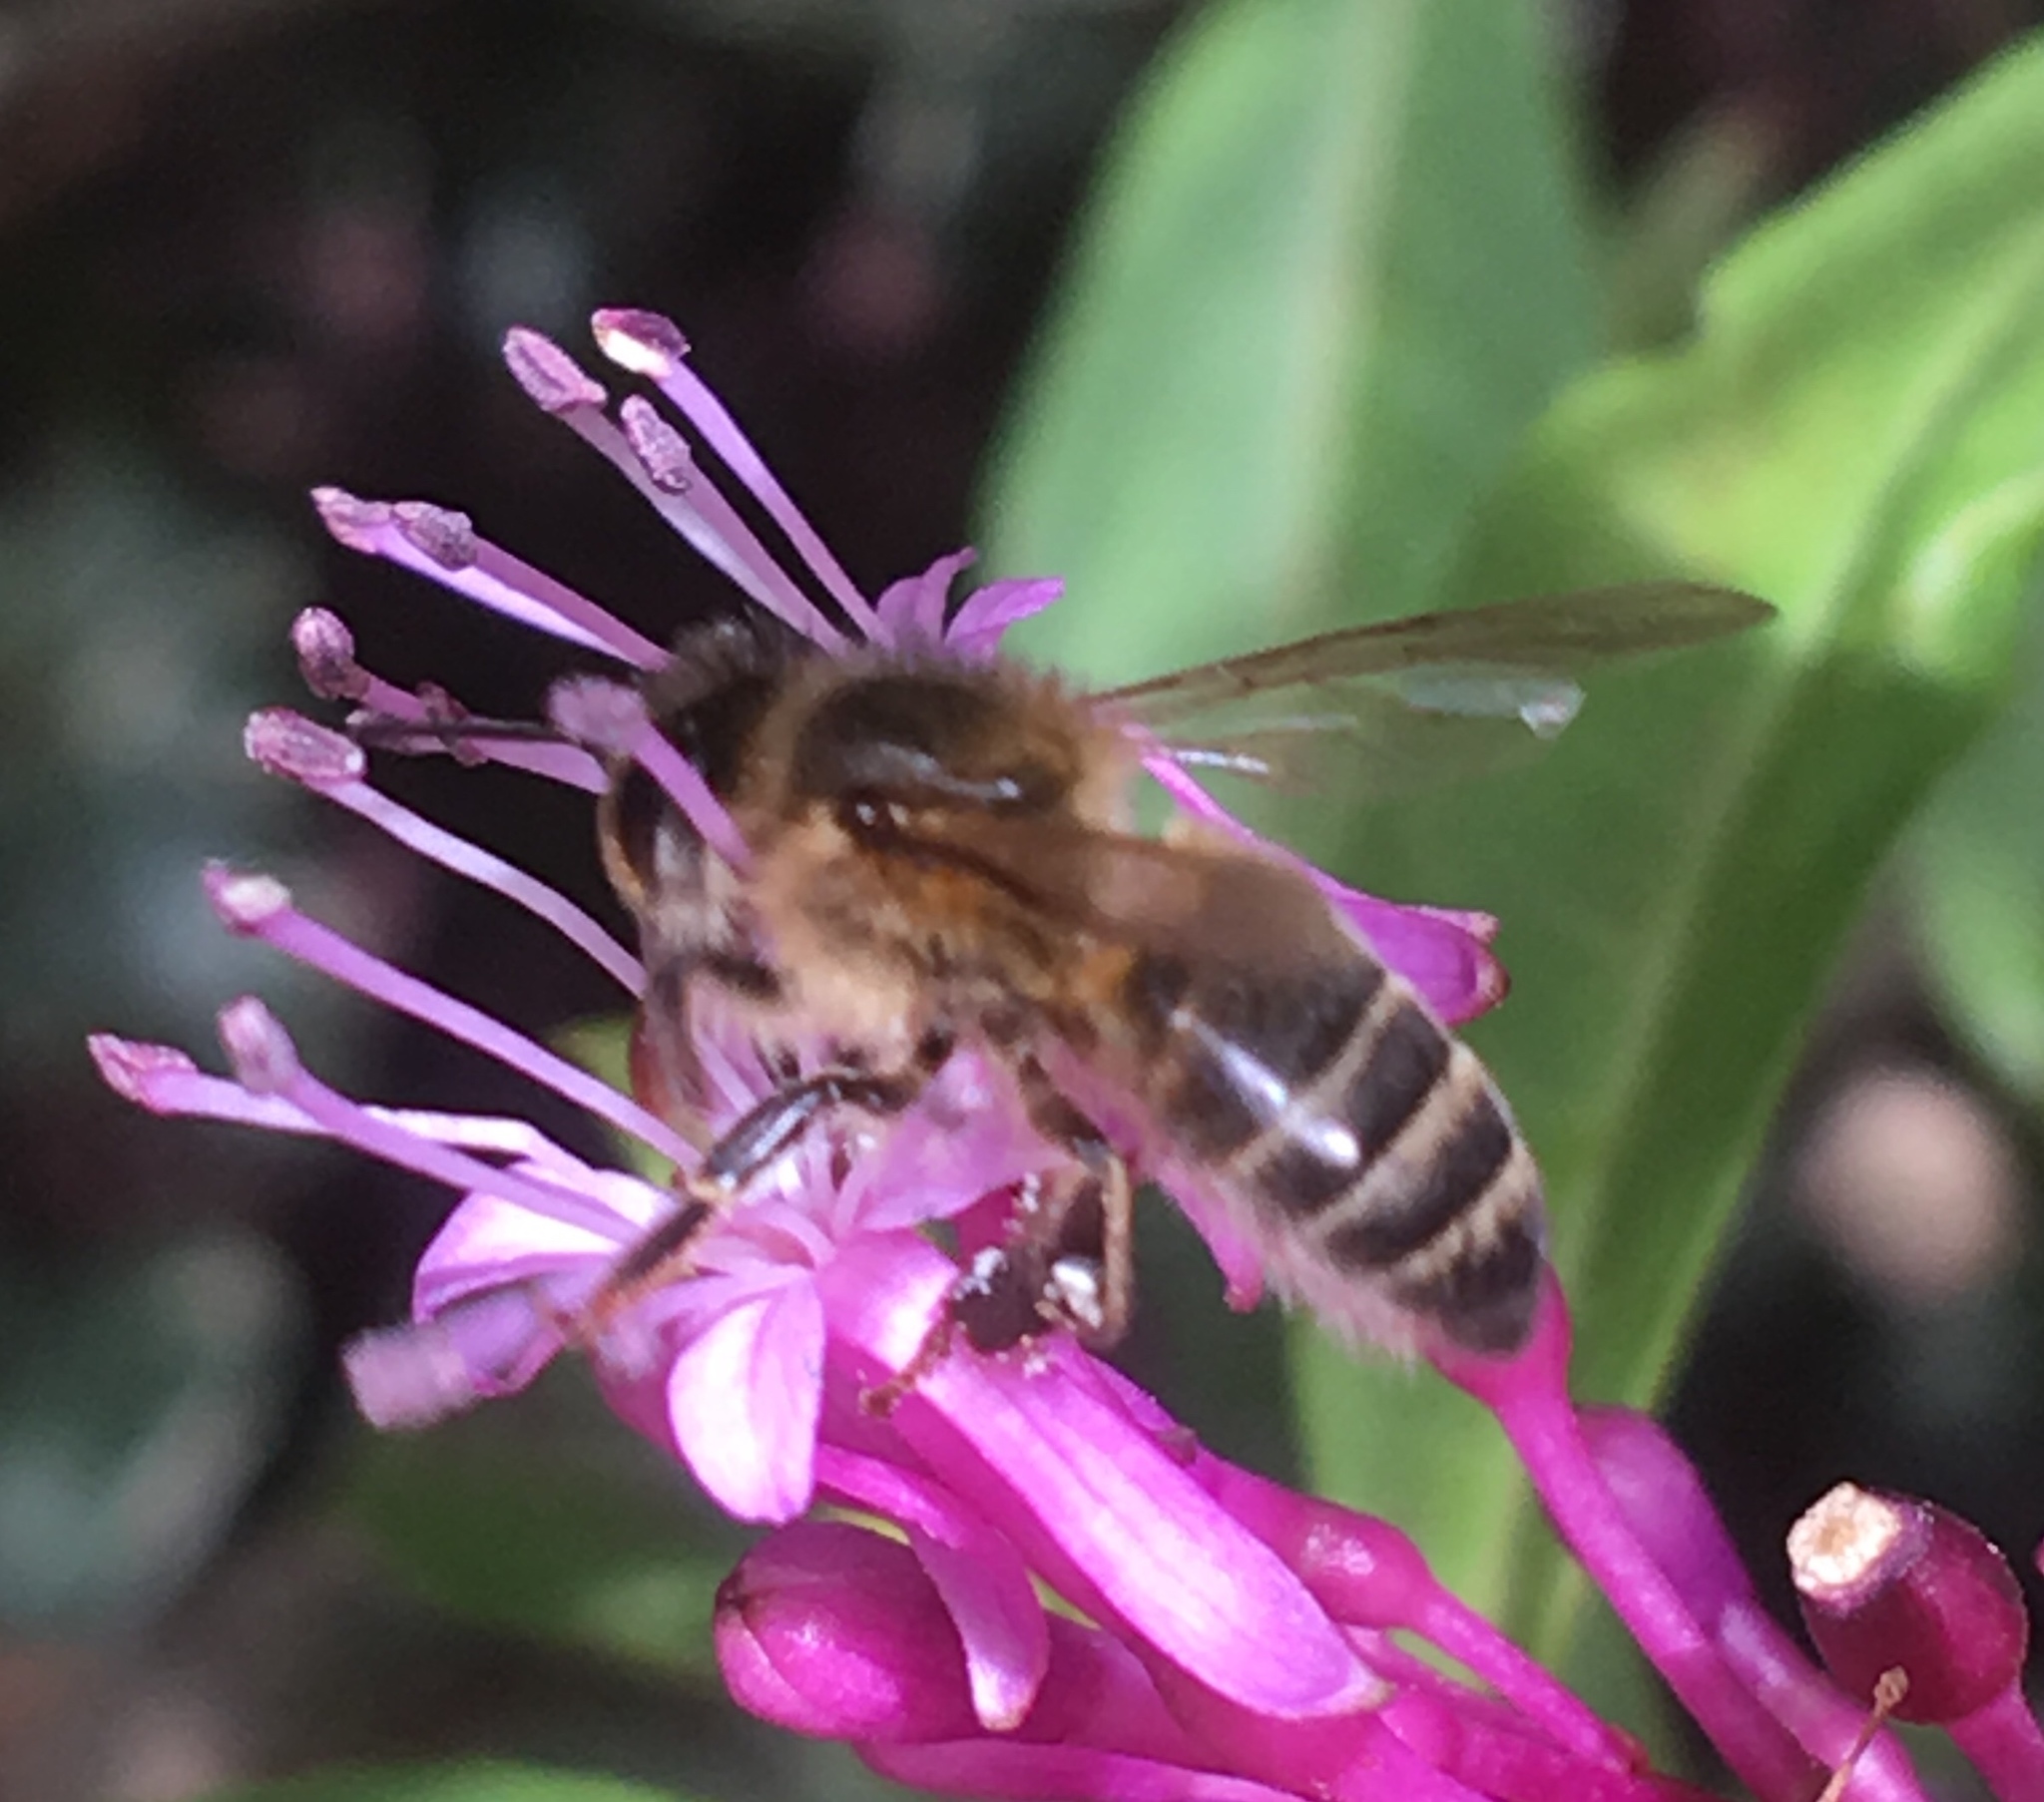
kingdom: Animalia
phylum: Arthropoda
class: Insecta
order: Hymenoptera
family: Apidae
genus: Apis
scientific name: Apis mellifera
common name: Honey bee
